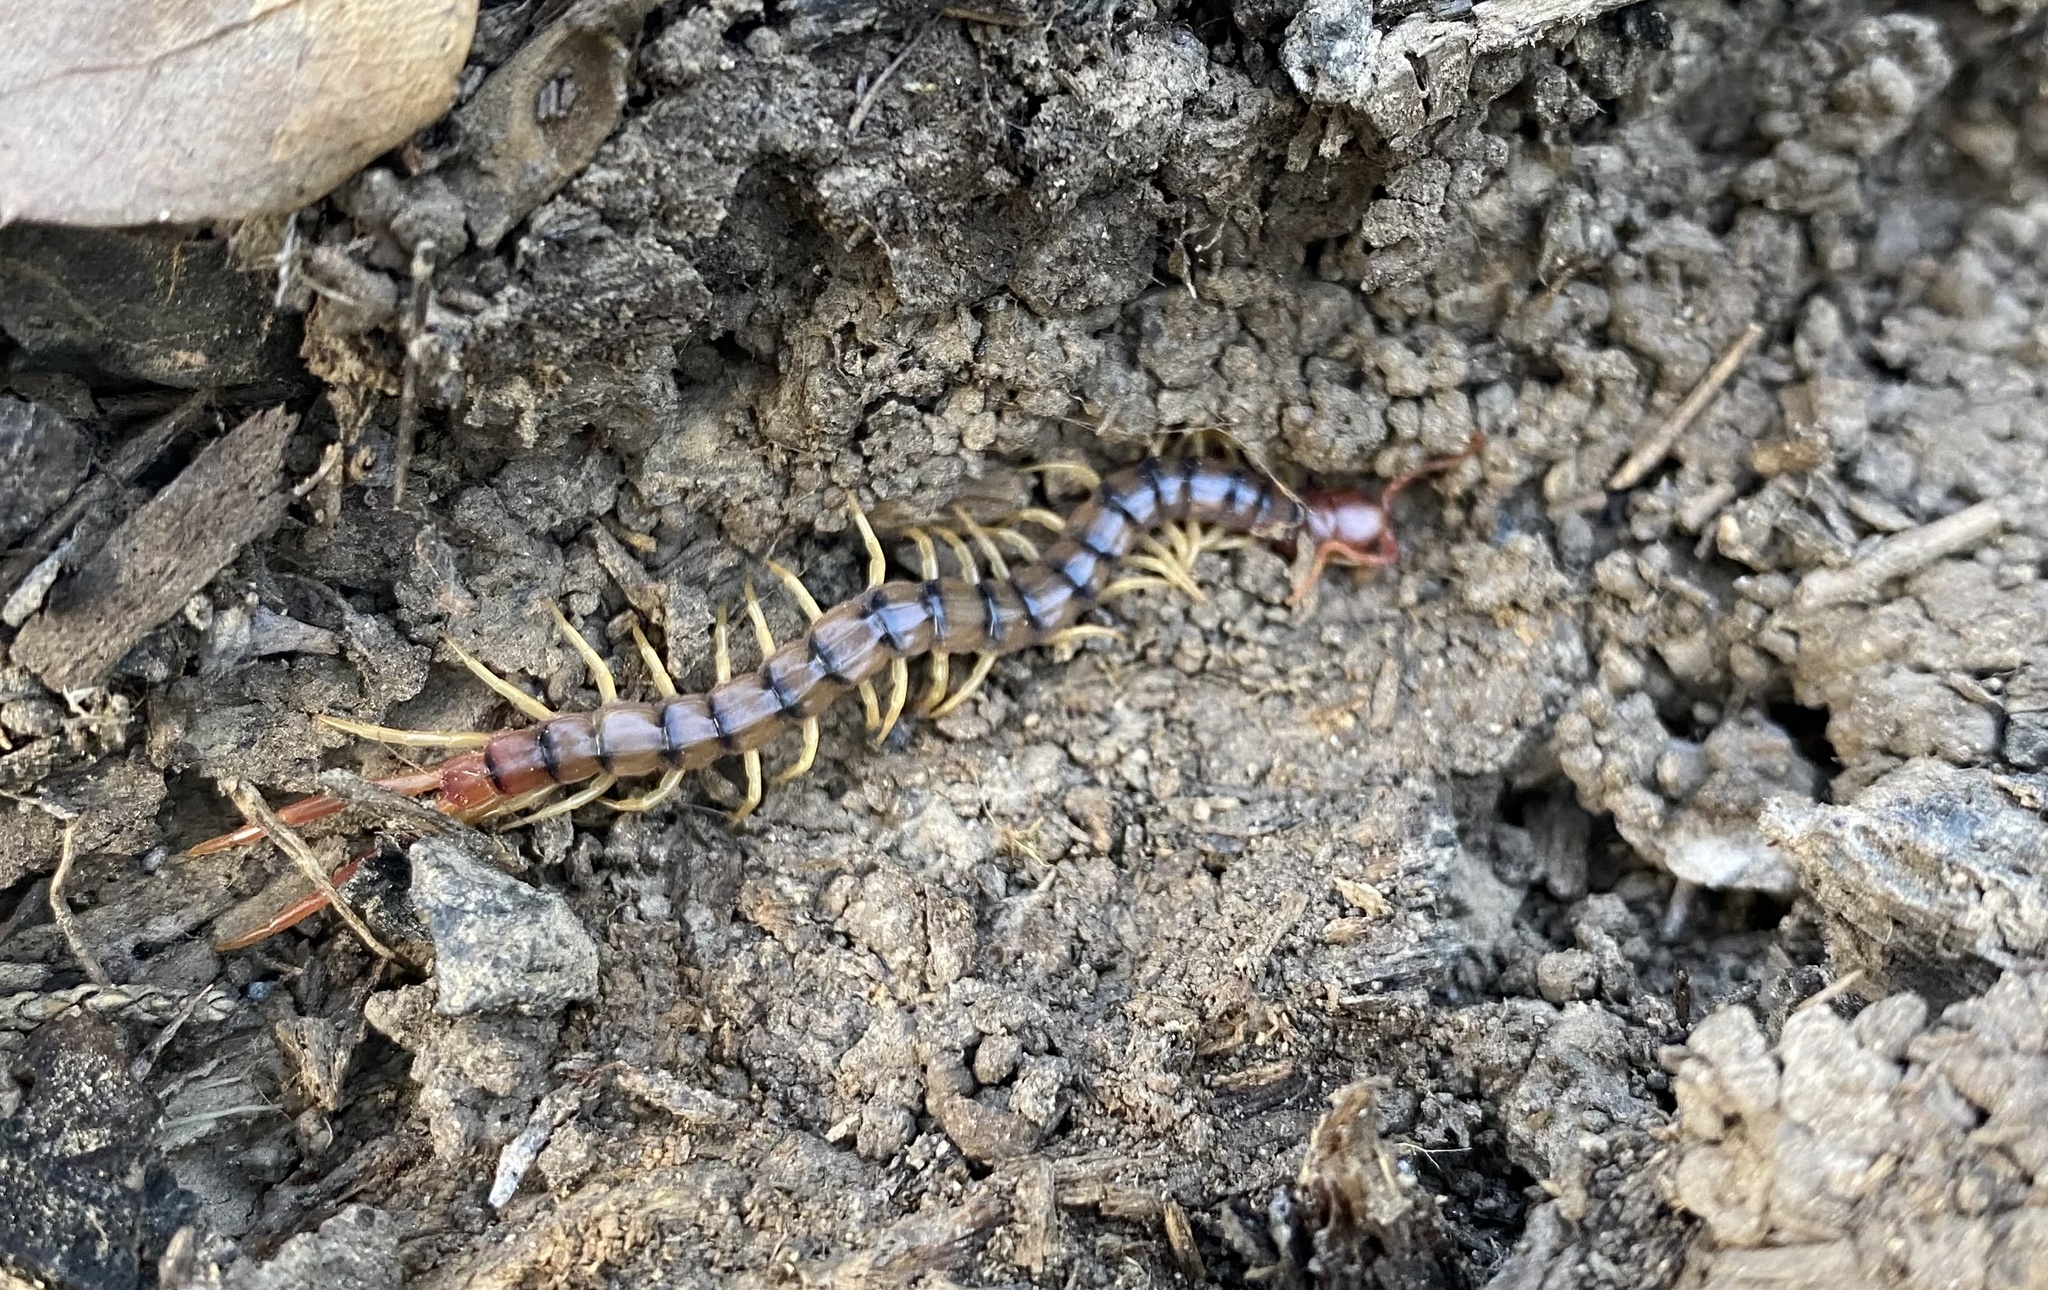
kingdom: Animalia
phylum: Arthropoda
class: Chilopoda
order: Scolopendromorpha
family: Scolopendridae
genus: Scolopendra
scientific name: Scolopendra polymorpha
